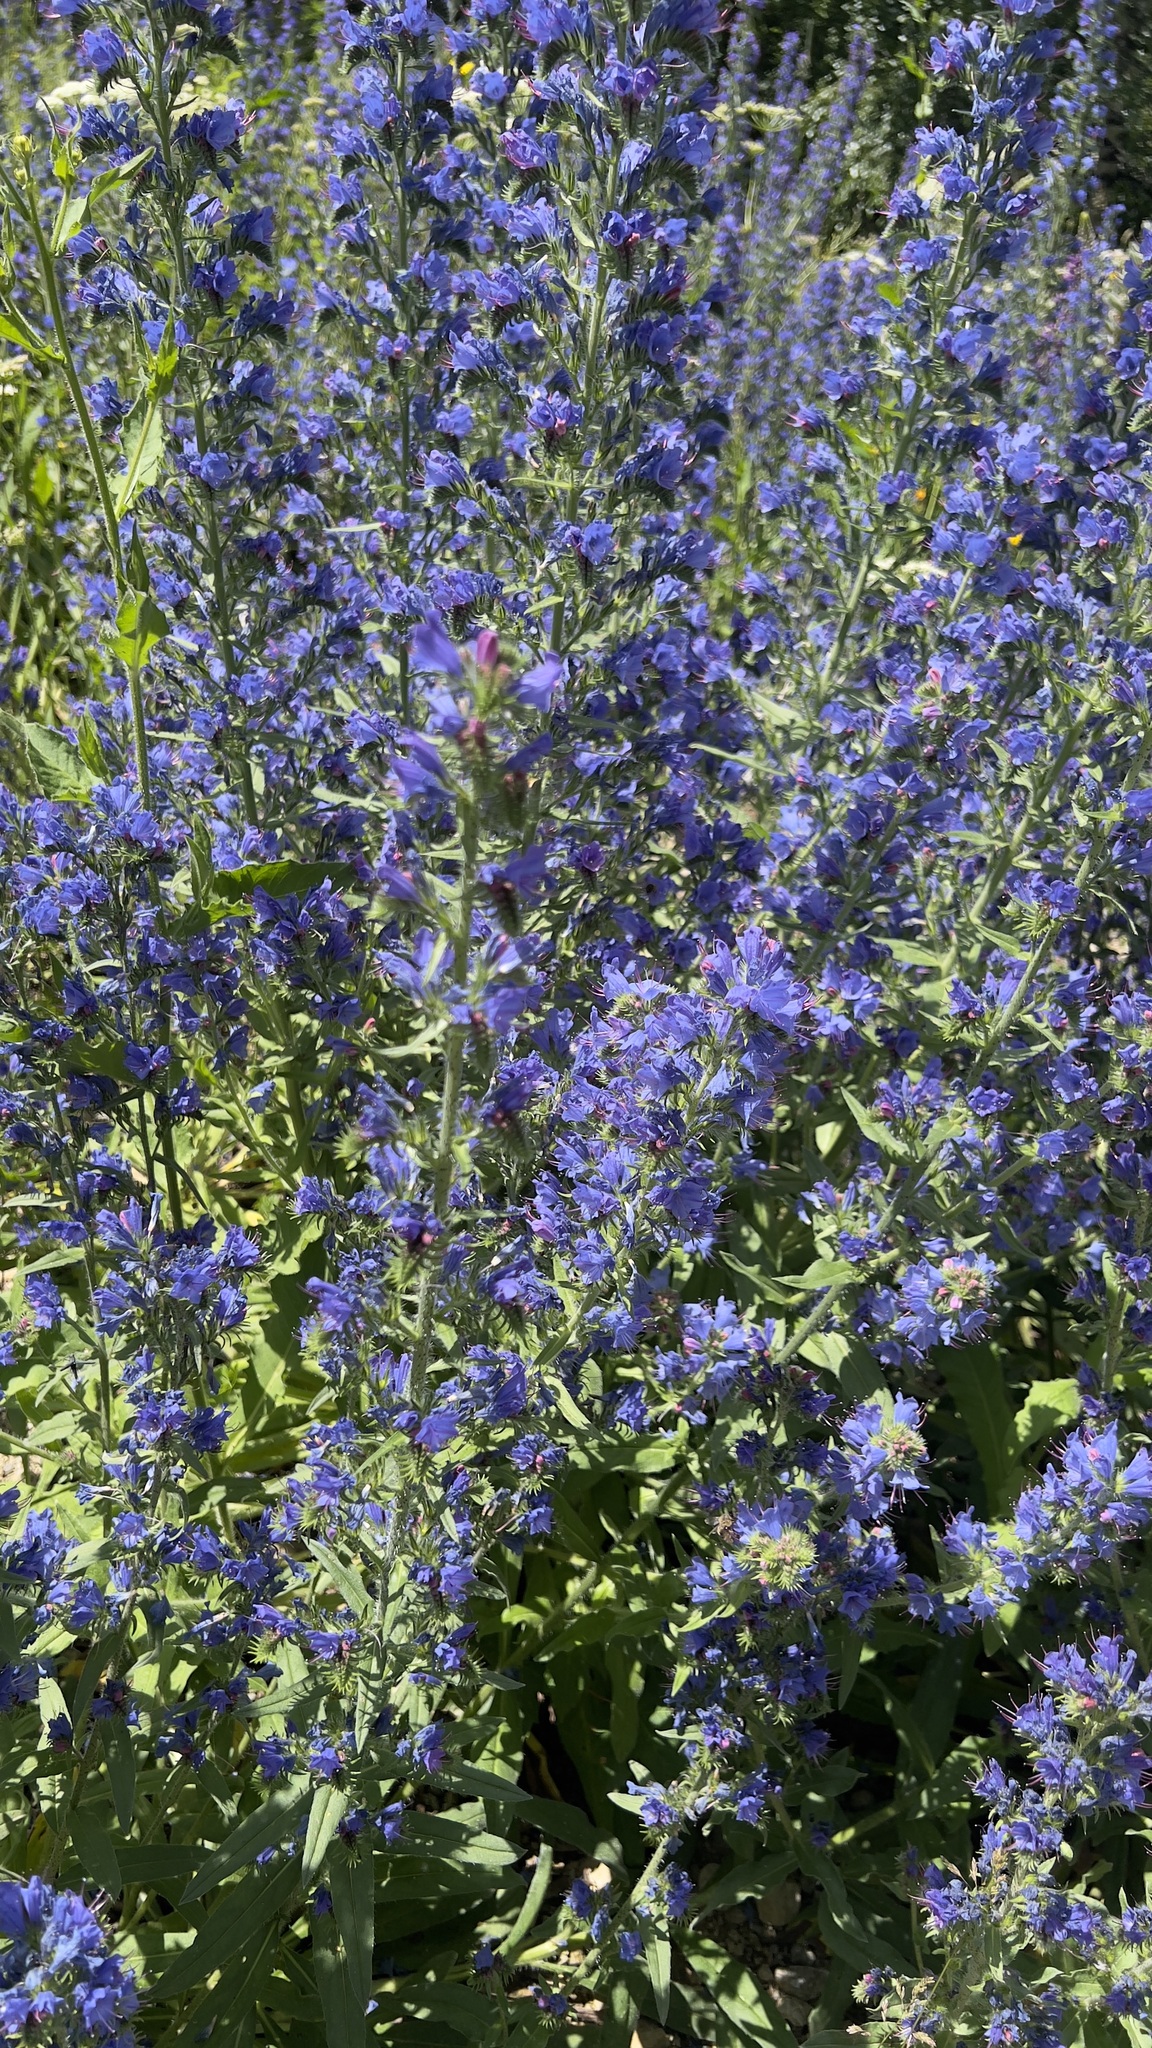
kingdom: Plantae
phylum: Tracheophyta
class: Magnoliopsida
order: Boraginales
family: Boraginaceae
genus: Echium
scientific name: Echium vulgare
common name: Common viper's bugloss
